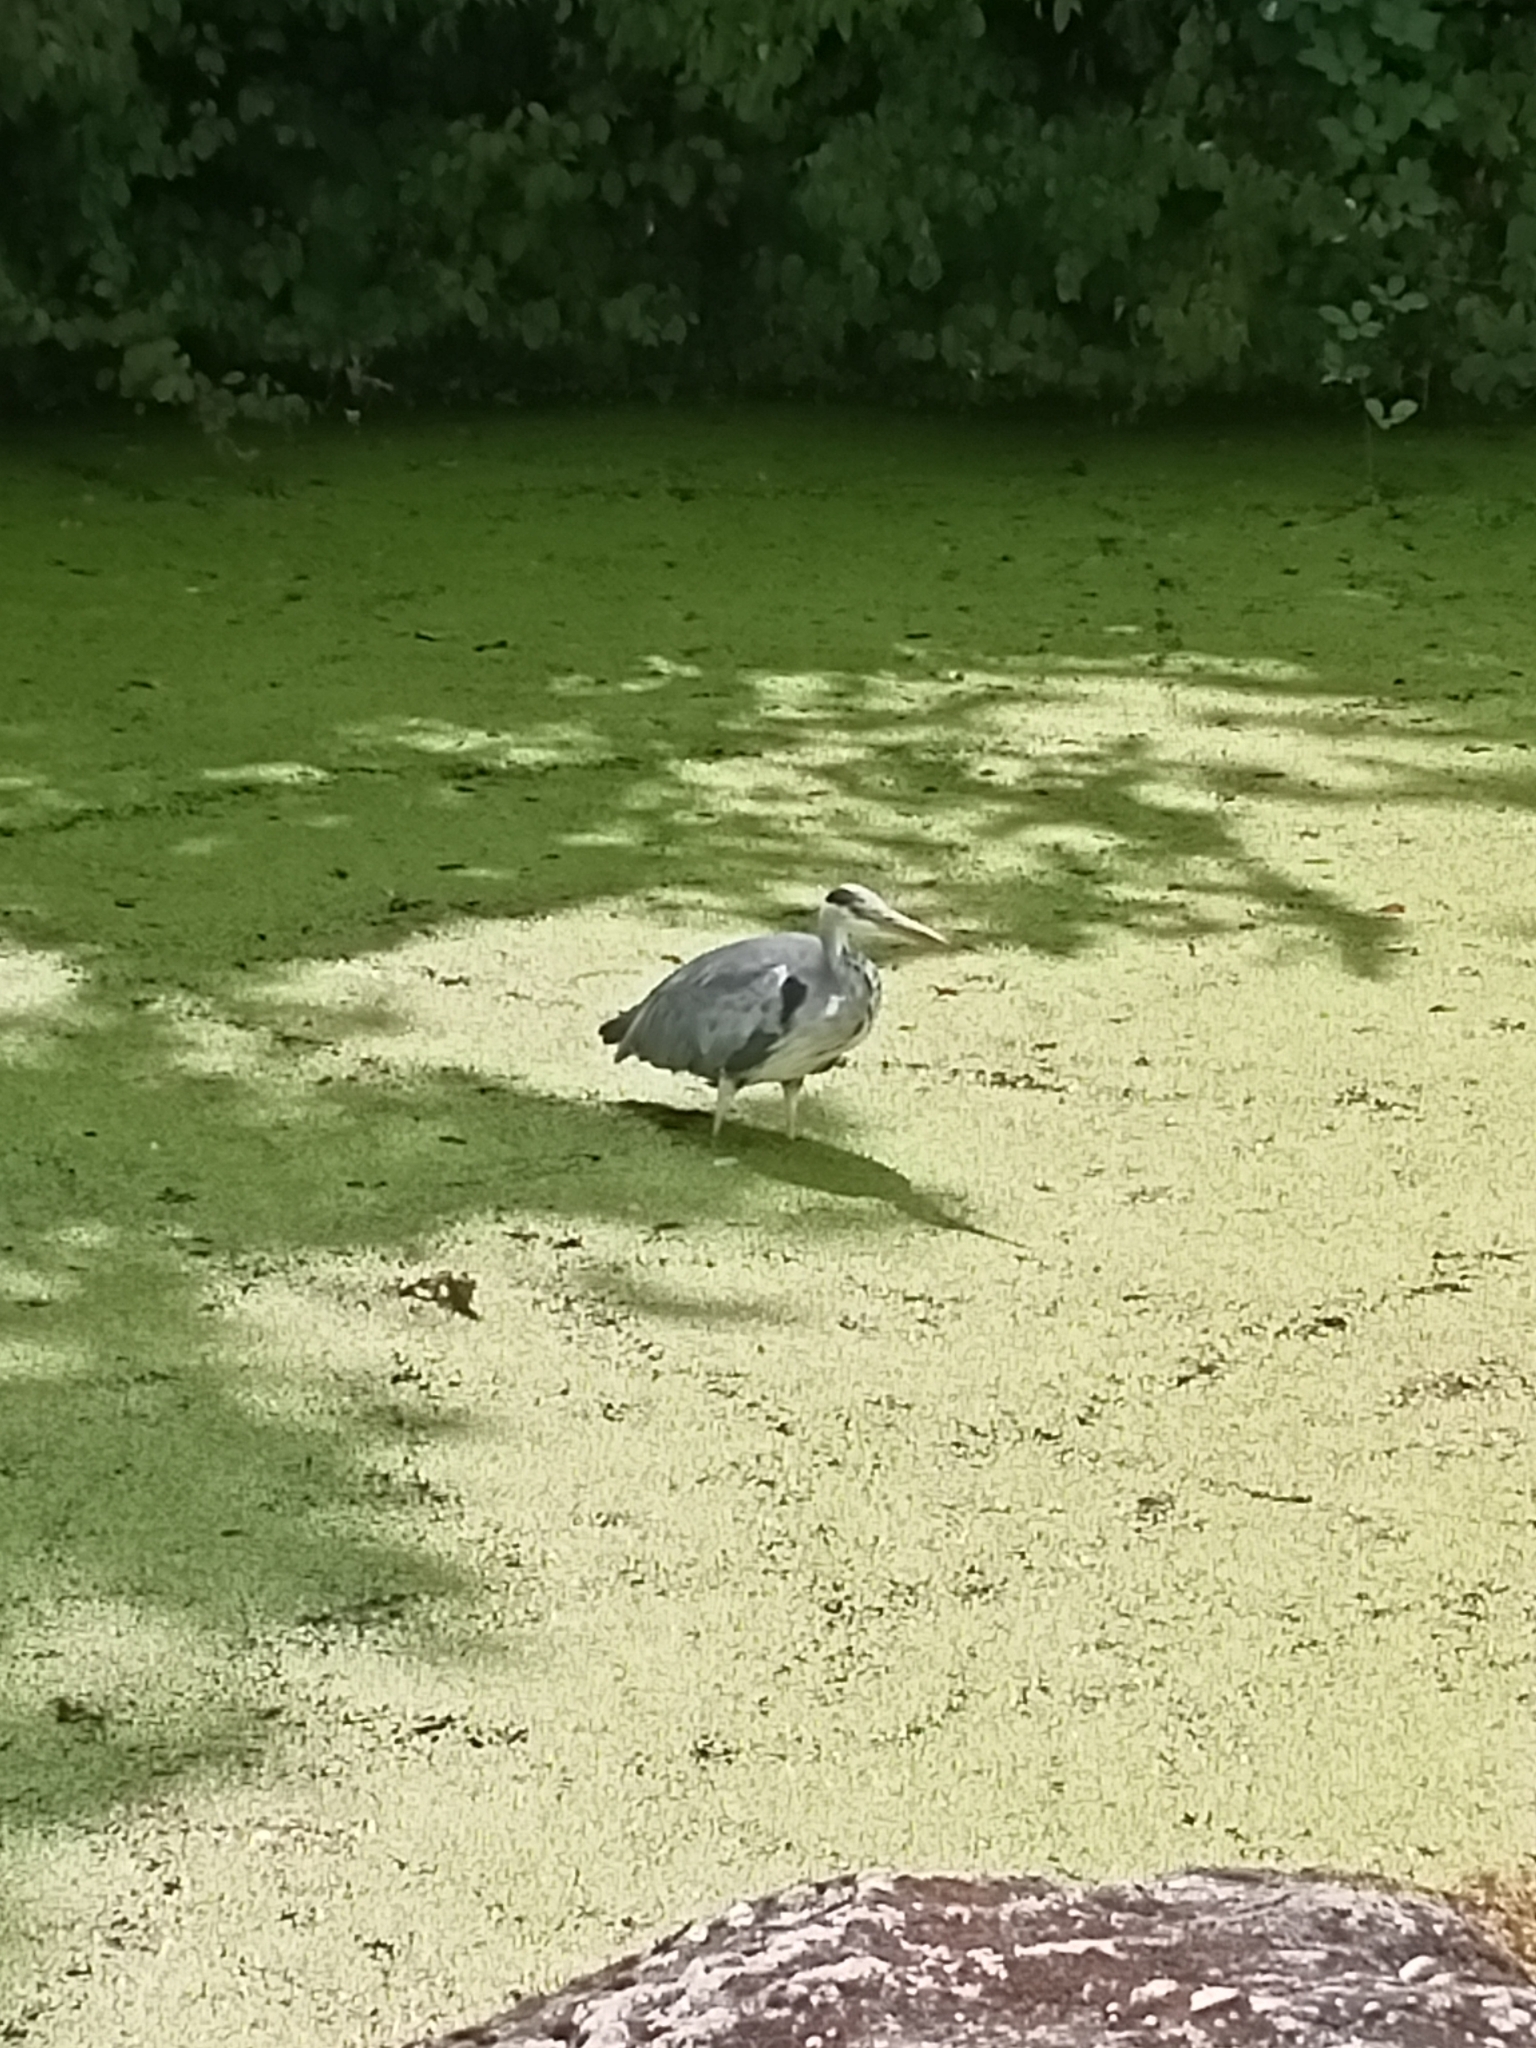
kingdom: Animalia
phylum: Chordata
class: Aves
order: Pelecaniformes
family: Ardeidae
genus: Ardea
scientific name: Ardea cinerea
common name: Grey heron
